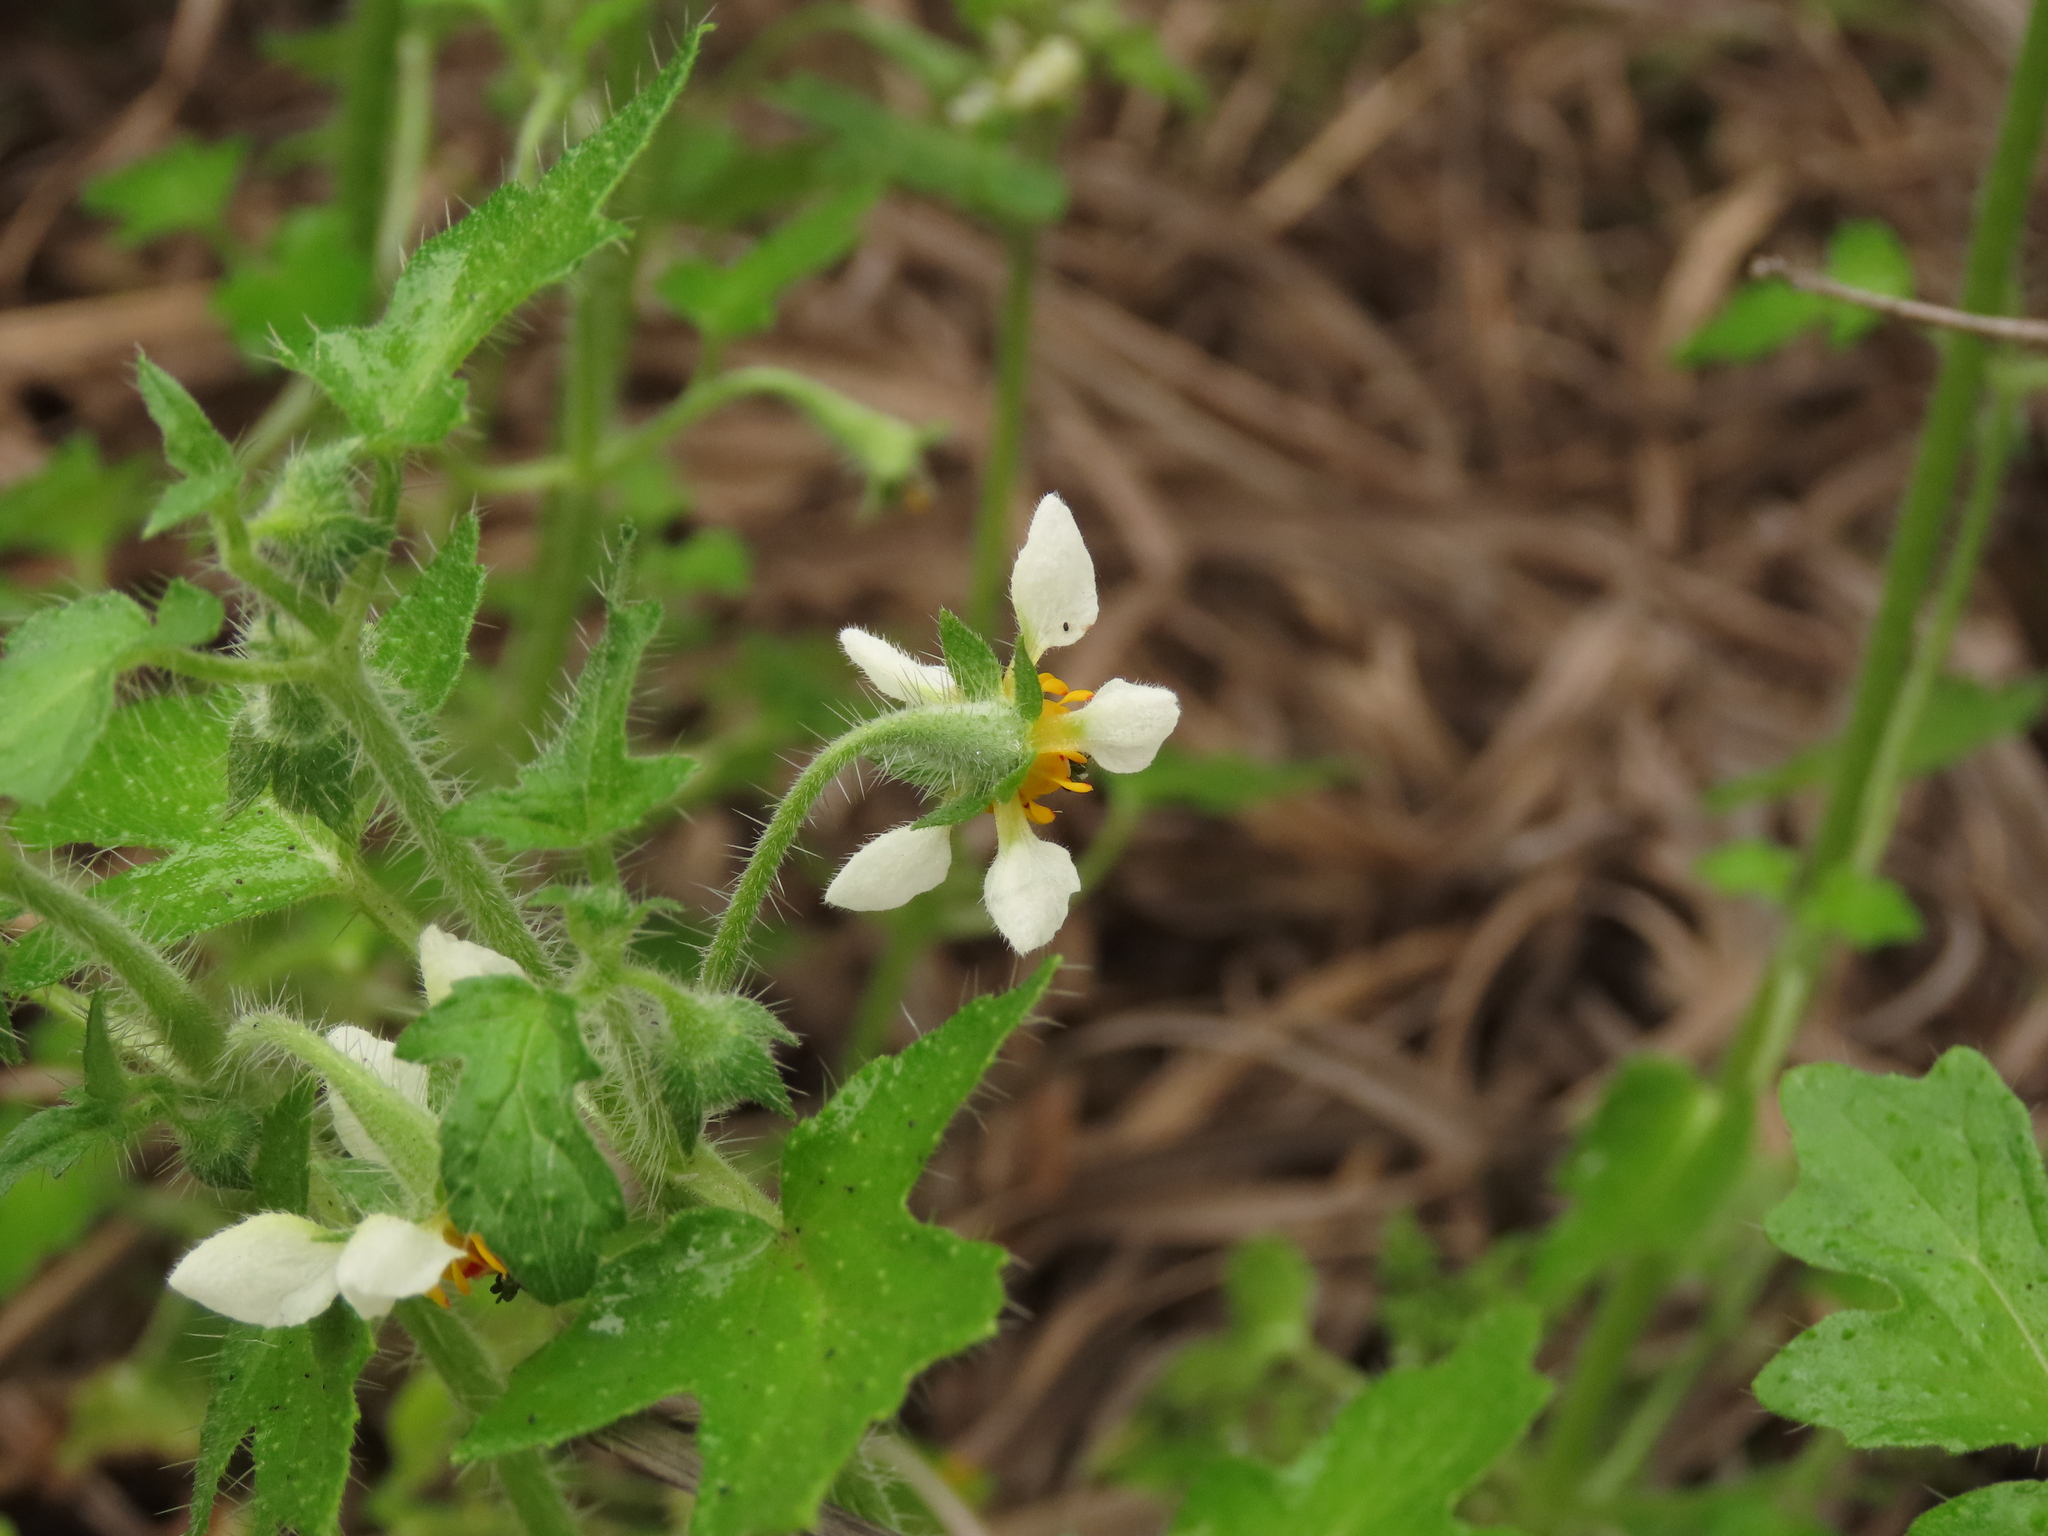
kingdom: Plantae
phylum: Tracheophyta
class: Magnoliopsida
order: Cornales
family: Loasaceae
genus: Loasa
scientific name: Loasa triloba
